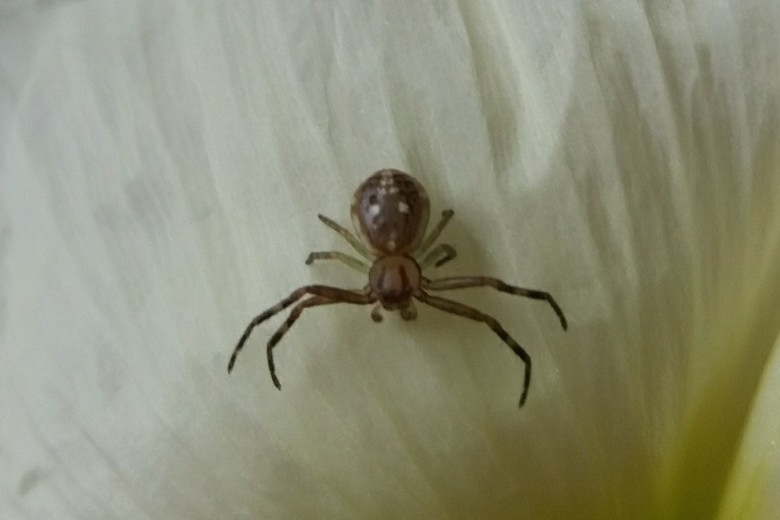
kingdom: Animalia
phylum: Arthropoda
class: Arachnida
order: Araneae
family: Thomisidae
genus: Diaea
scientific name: Diaea ambara
